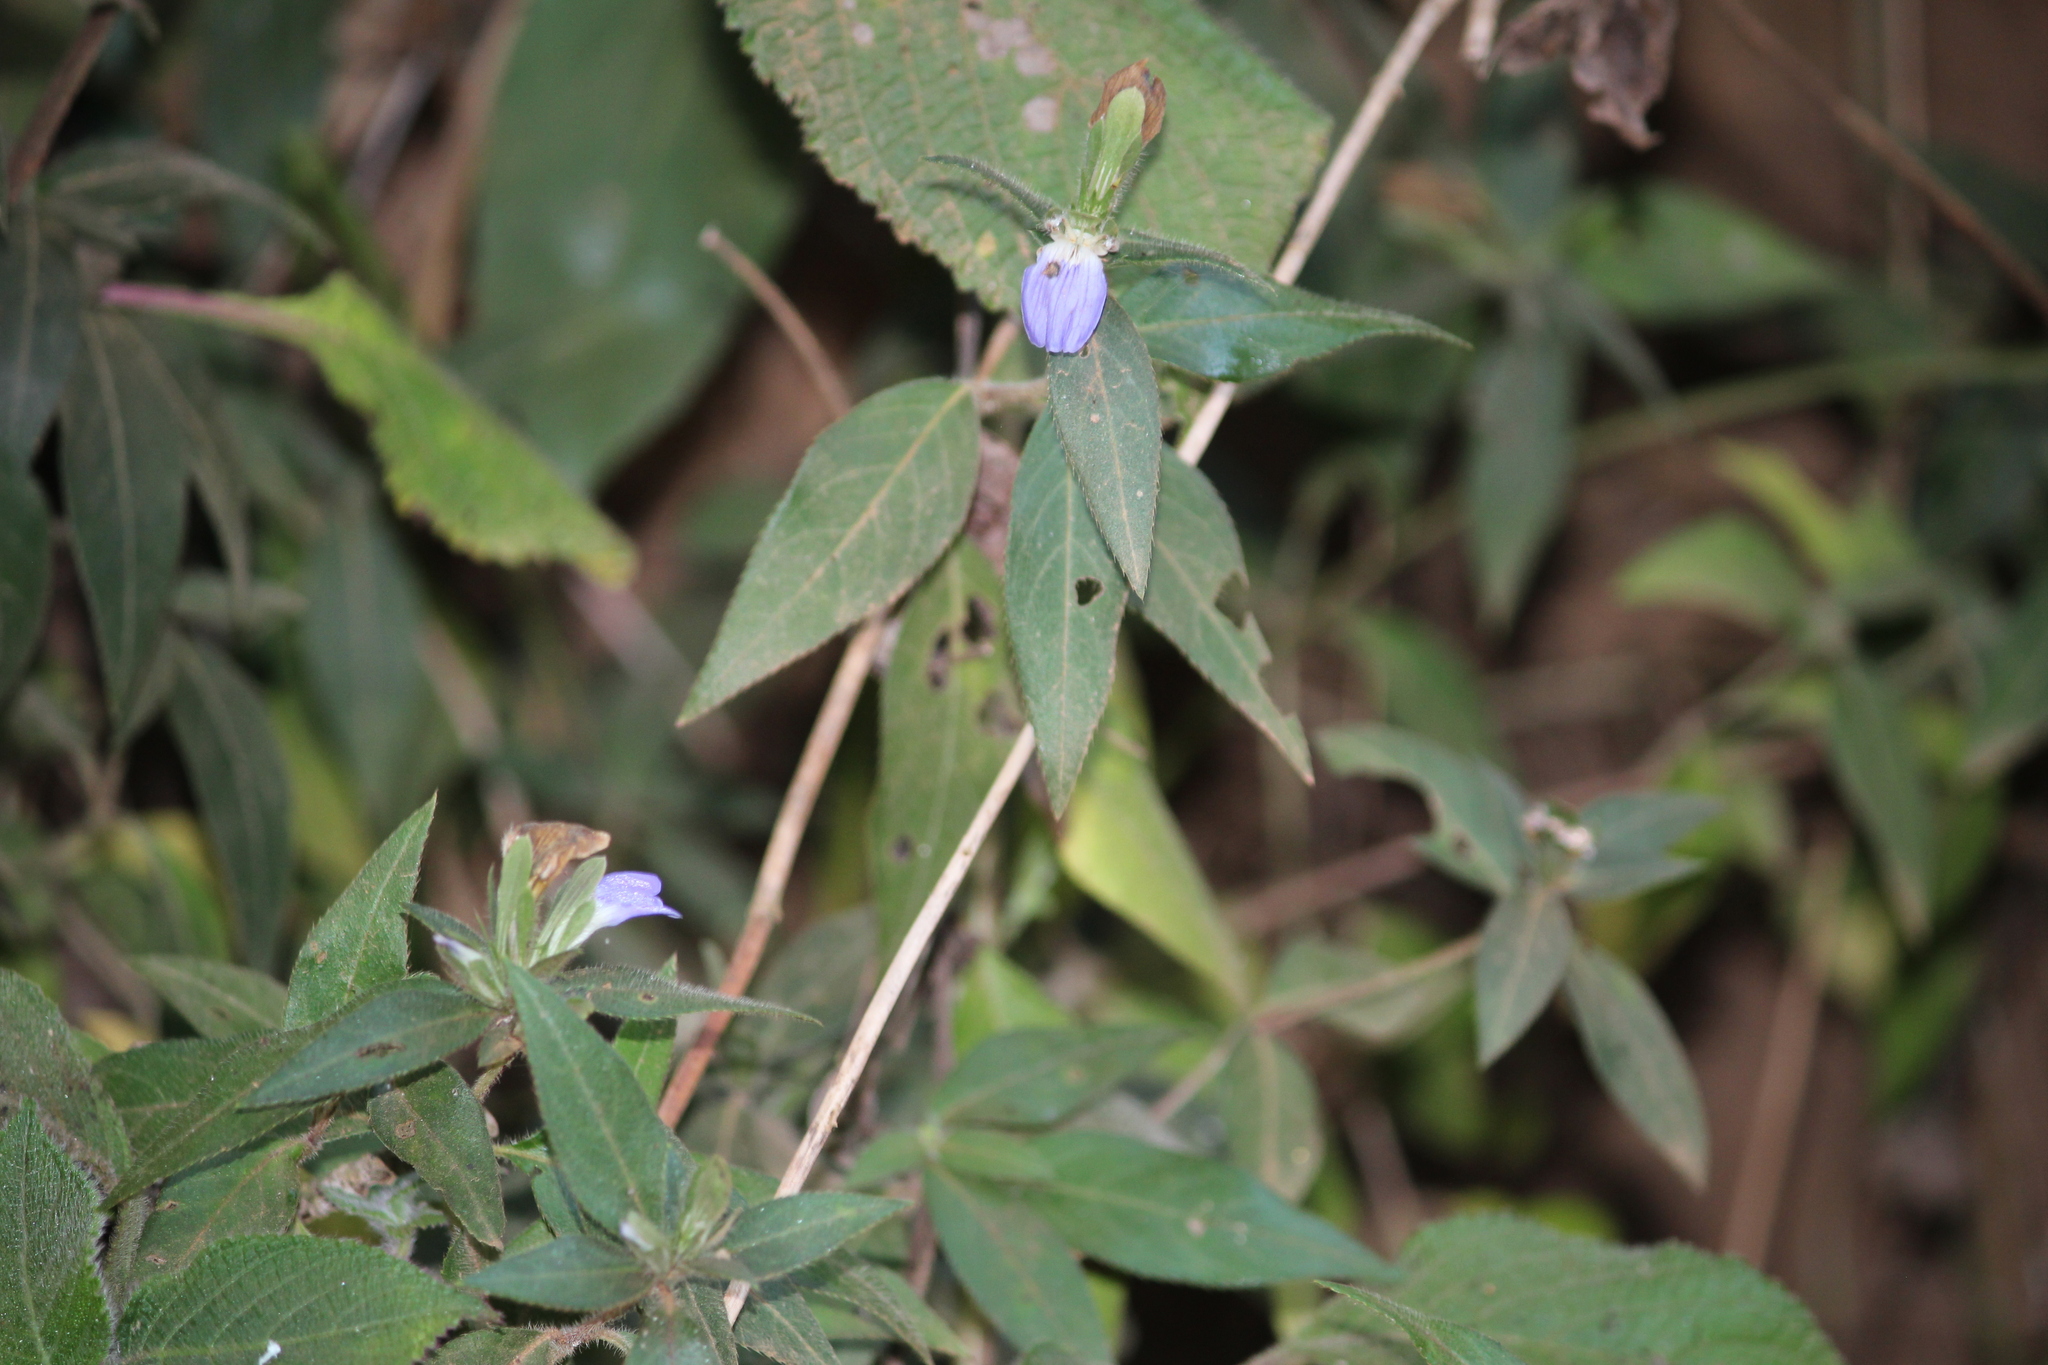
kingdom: Plantae
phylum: Tracheophyta
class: Magnoliopsida
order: Lamiales
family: Acanthaceae
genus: Cynarospermum
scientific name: Cynarospermum asperrimum
